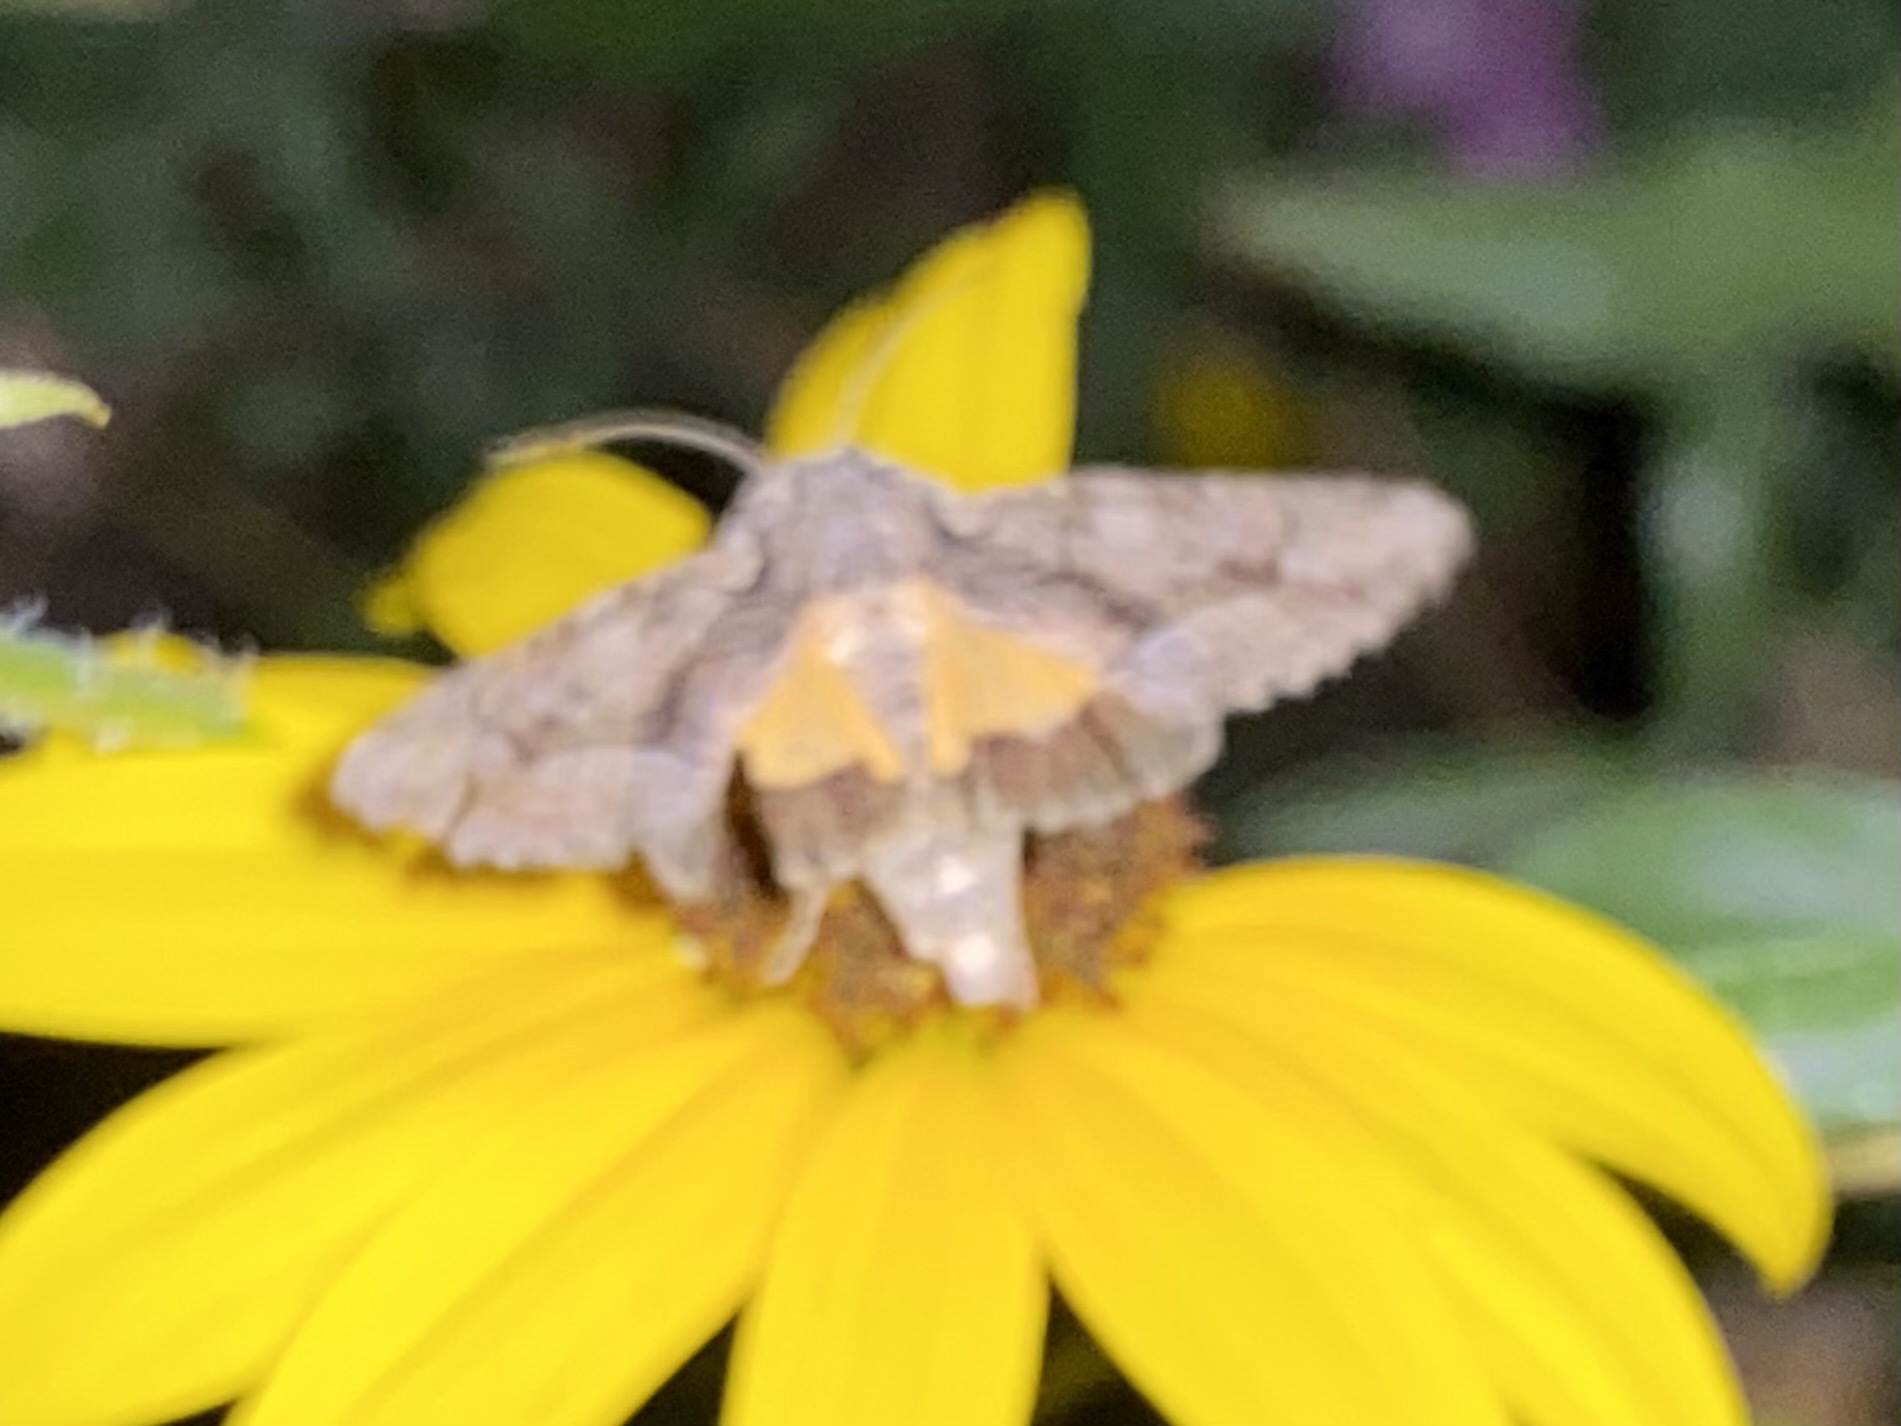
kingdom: Animalia
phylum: Arthropoda
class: Insecta
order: Lepidoptera
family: Noctuidae
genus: Pseudanarta
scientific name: Pseudanarta singula
